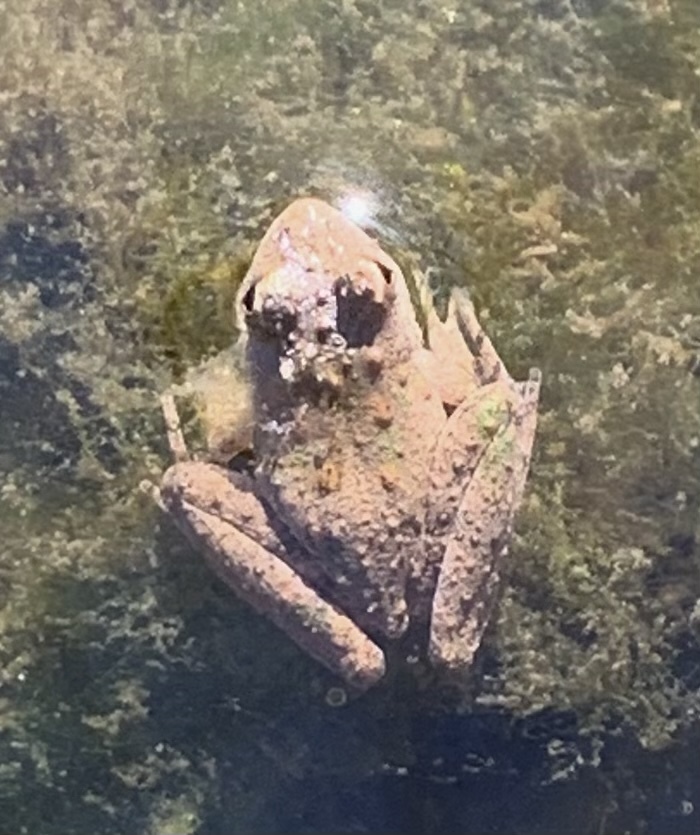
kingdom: Animalia
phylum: Chordata
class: Amphibia
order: Anura
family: Hylidae
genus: Acris
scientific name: Acris blanchardi
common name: Blanchard's cricket frog
